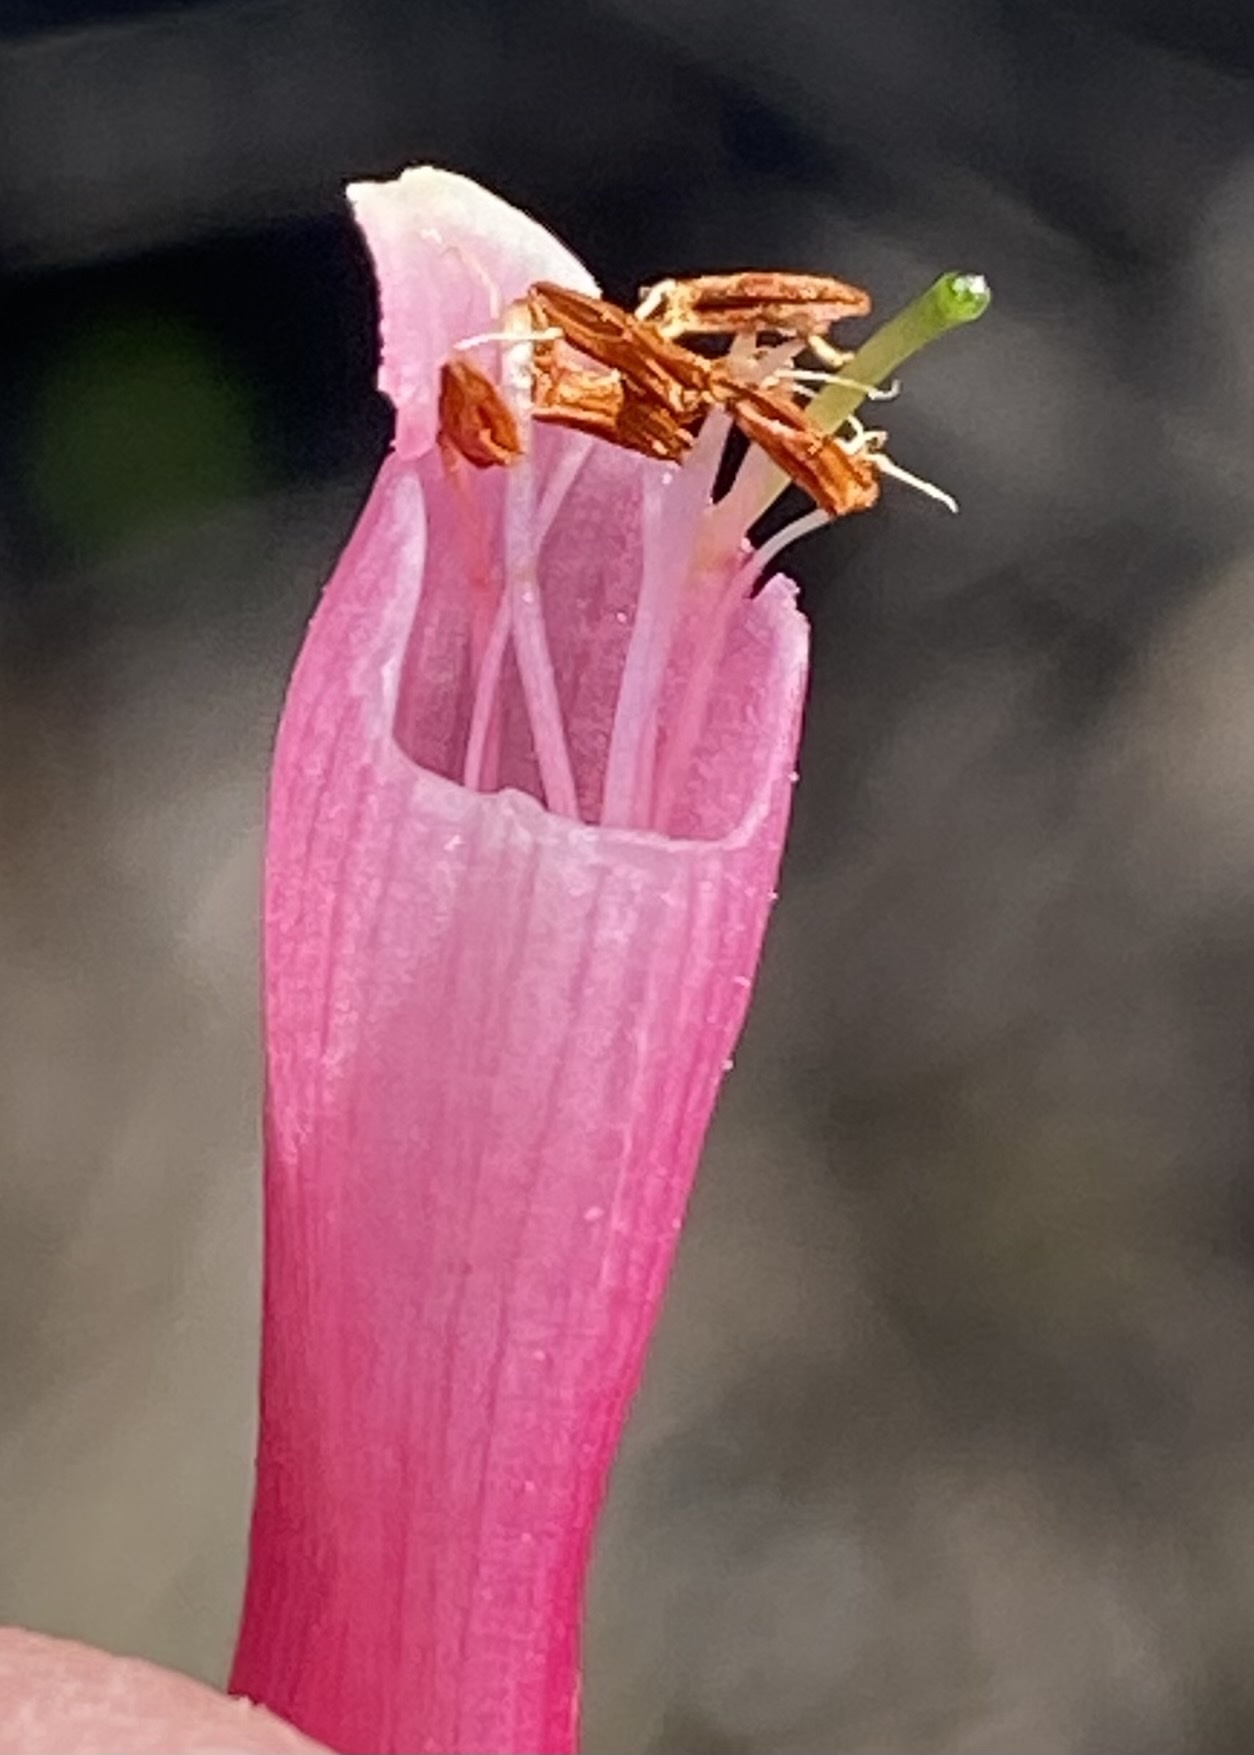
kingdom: Plantae
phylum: Tracheophyta
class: Magnoliopsida
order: Ericales
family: Ericaceae
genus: Erica
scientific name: Erica discolor
